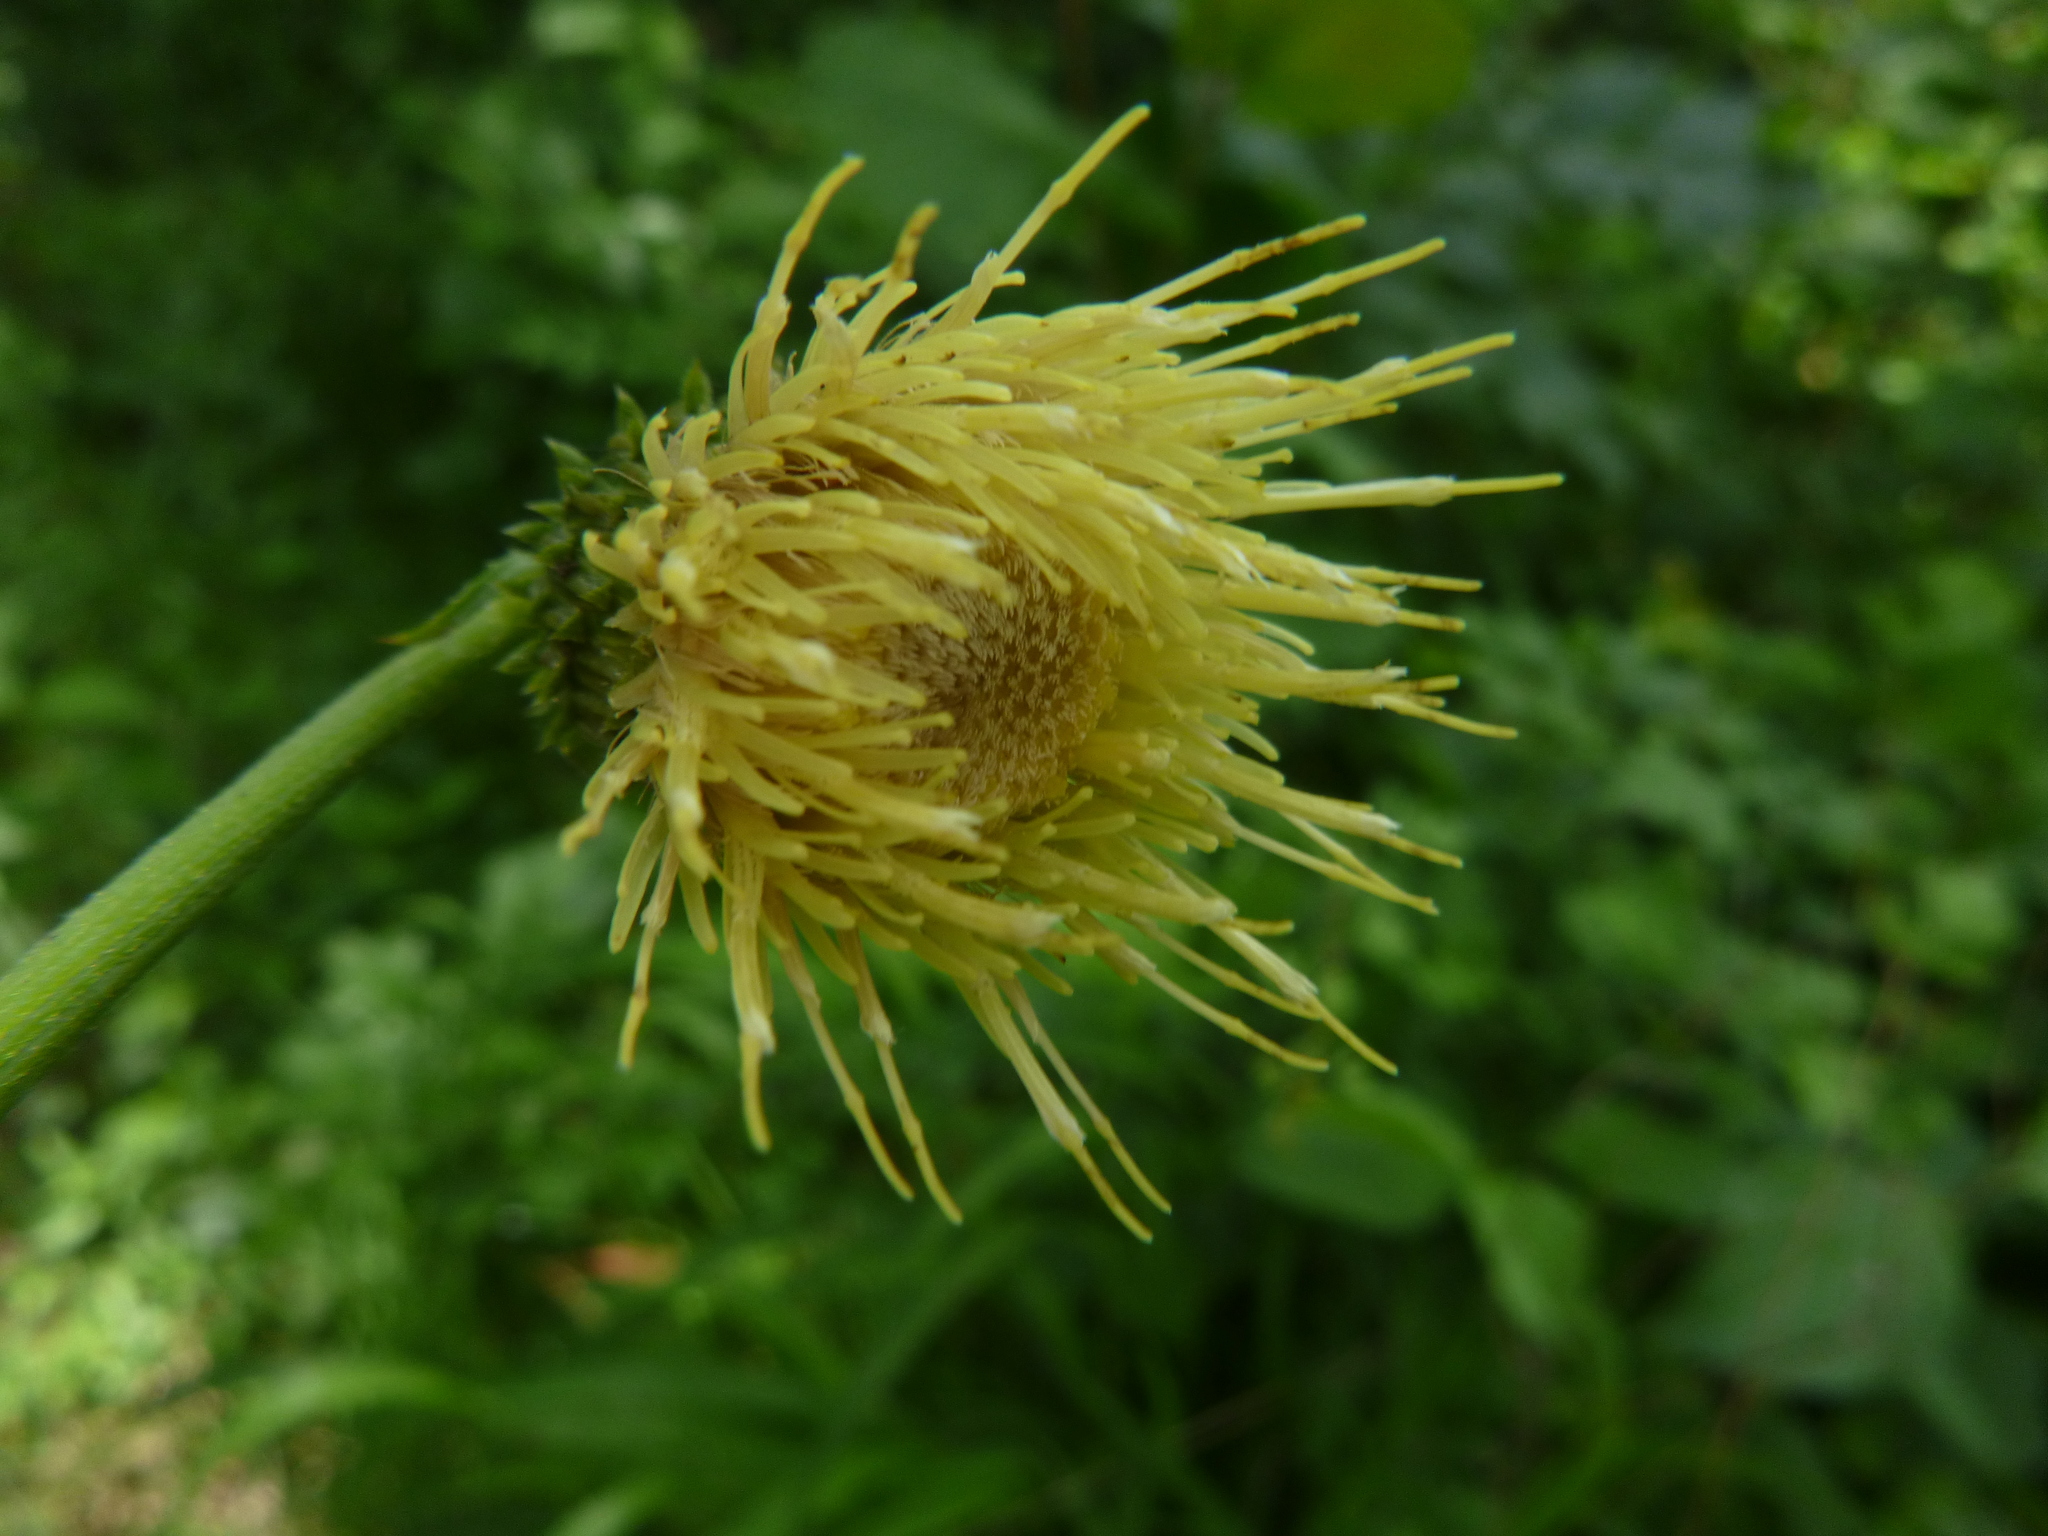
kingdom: Plantae
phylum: Tracheophyta
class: Magnoliopsida
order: Asterales
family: Asteraceae
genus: Cirsium
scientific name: Cirsium erisithales
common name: Yellow thistle
